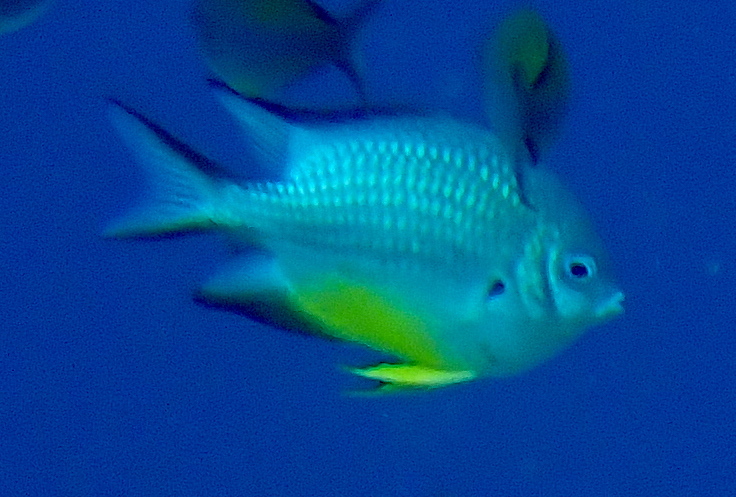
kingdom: Animalia
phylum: Chordata
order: Perciformes
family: Pomacentridae
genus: Amblyglyphidodon
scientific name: Amblyglyphidodon leucogaster
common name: White-belly damsel
